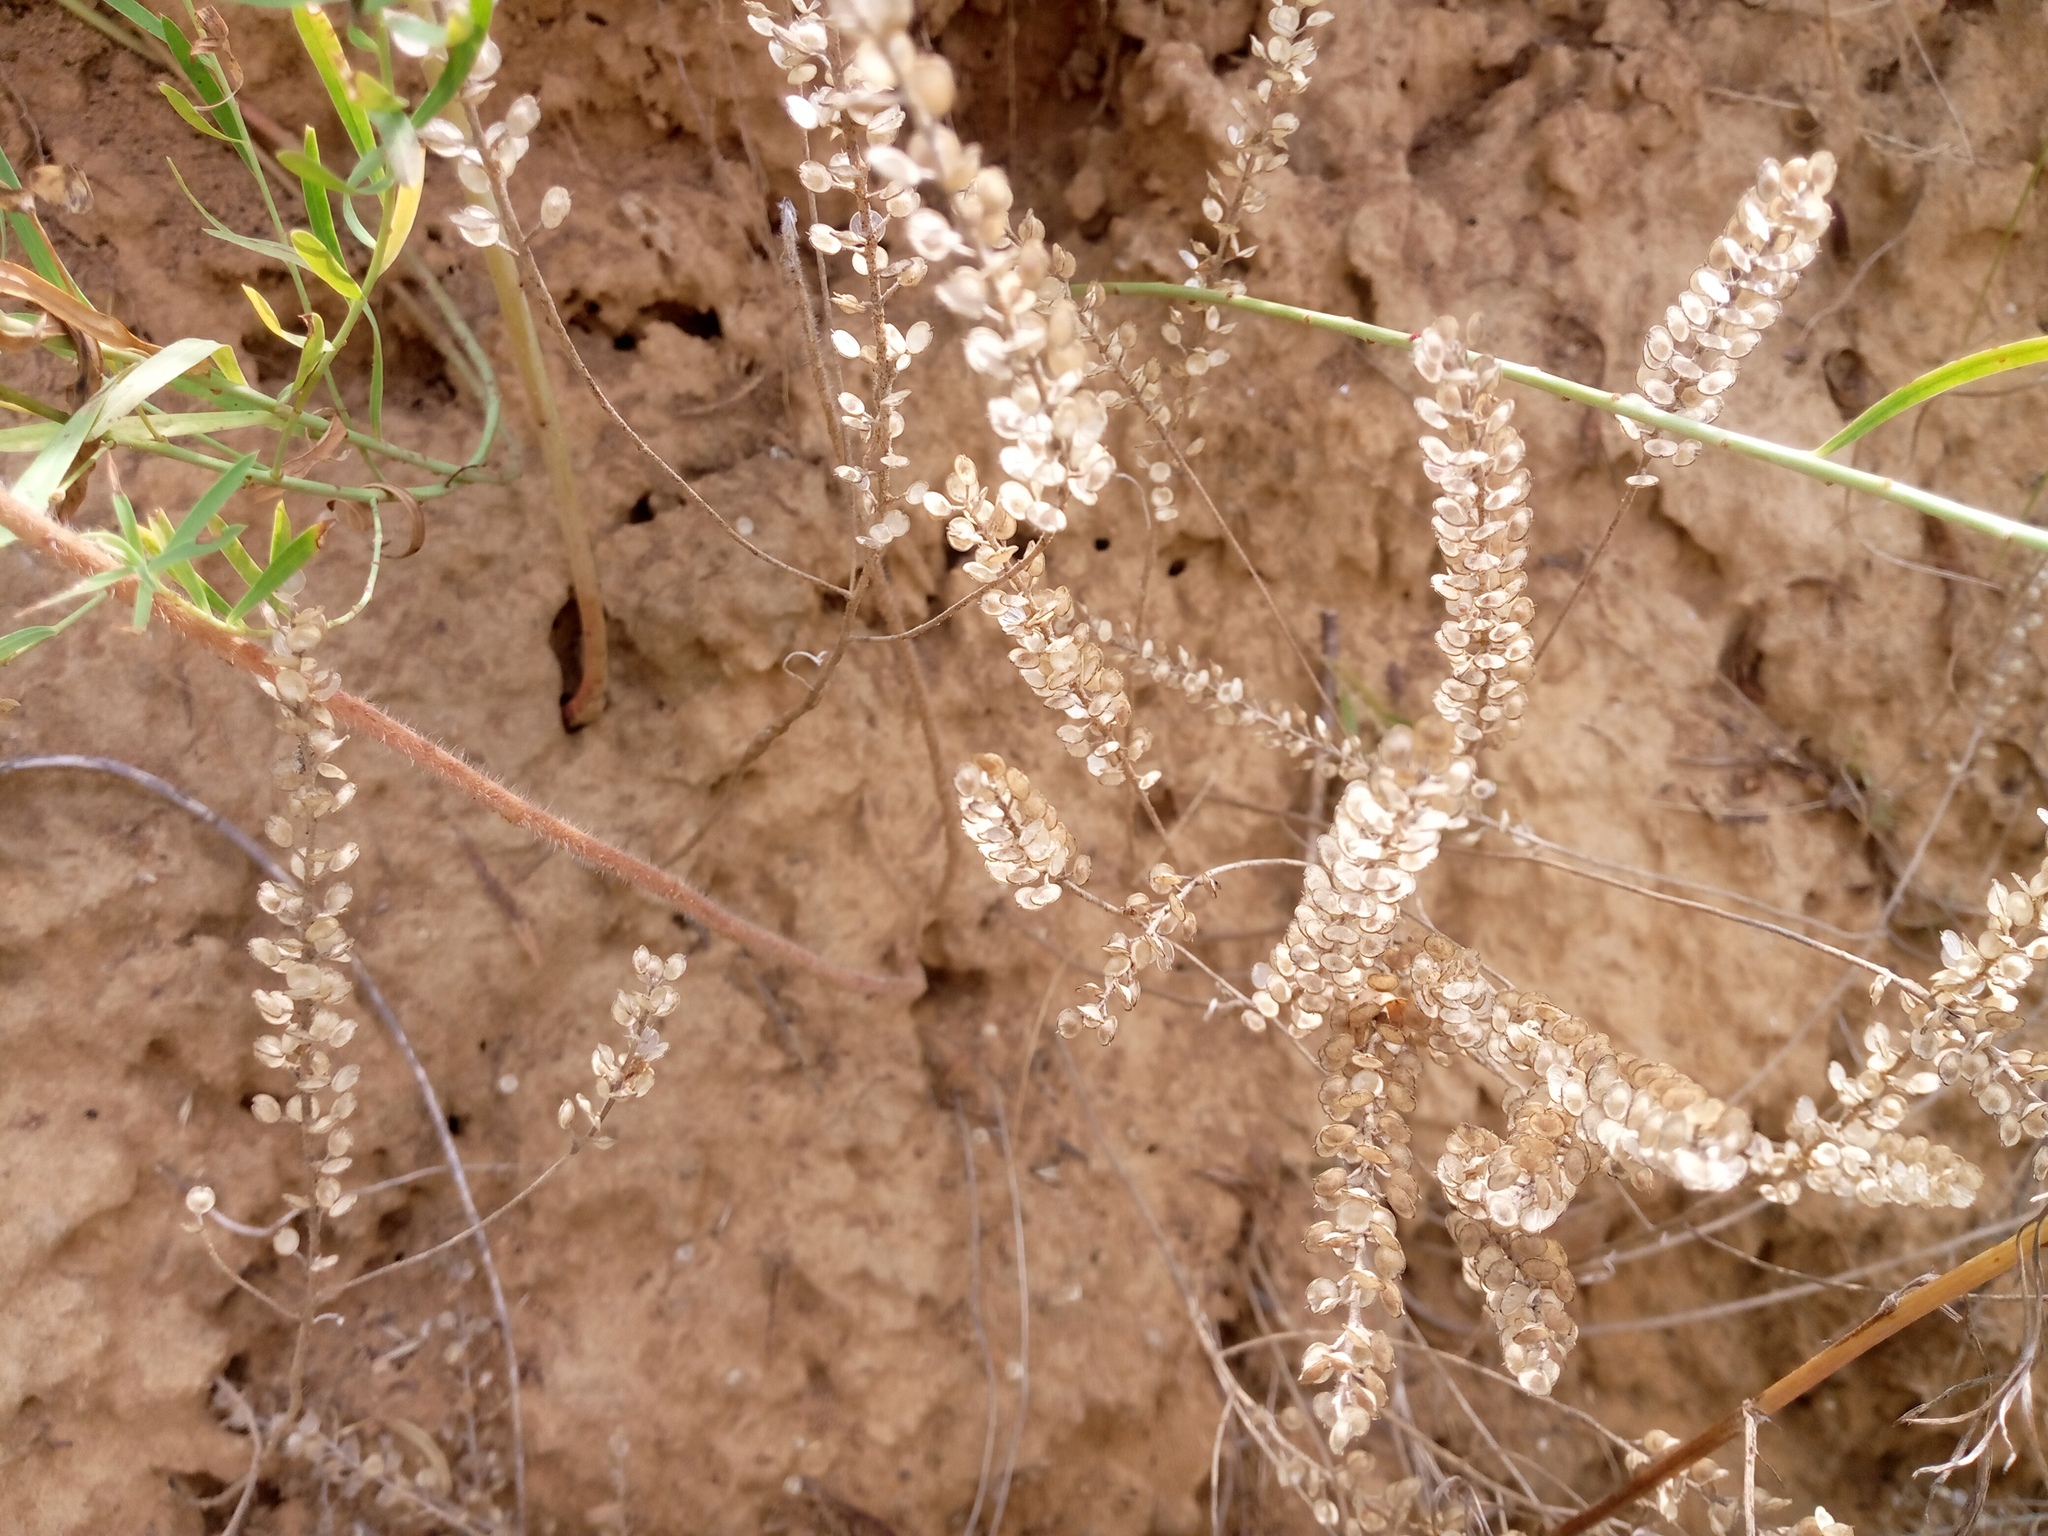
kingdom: Plantae
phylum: Tracheophyta
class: Magnoliopsida
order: Brassicales
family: Brassicaceae
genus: Alyssum
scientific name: Alyssum turkestanicum
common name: Desert alyssum
